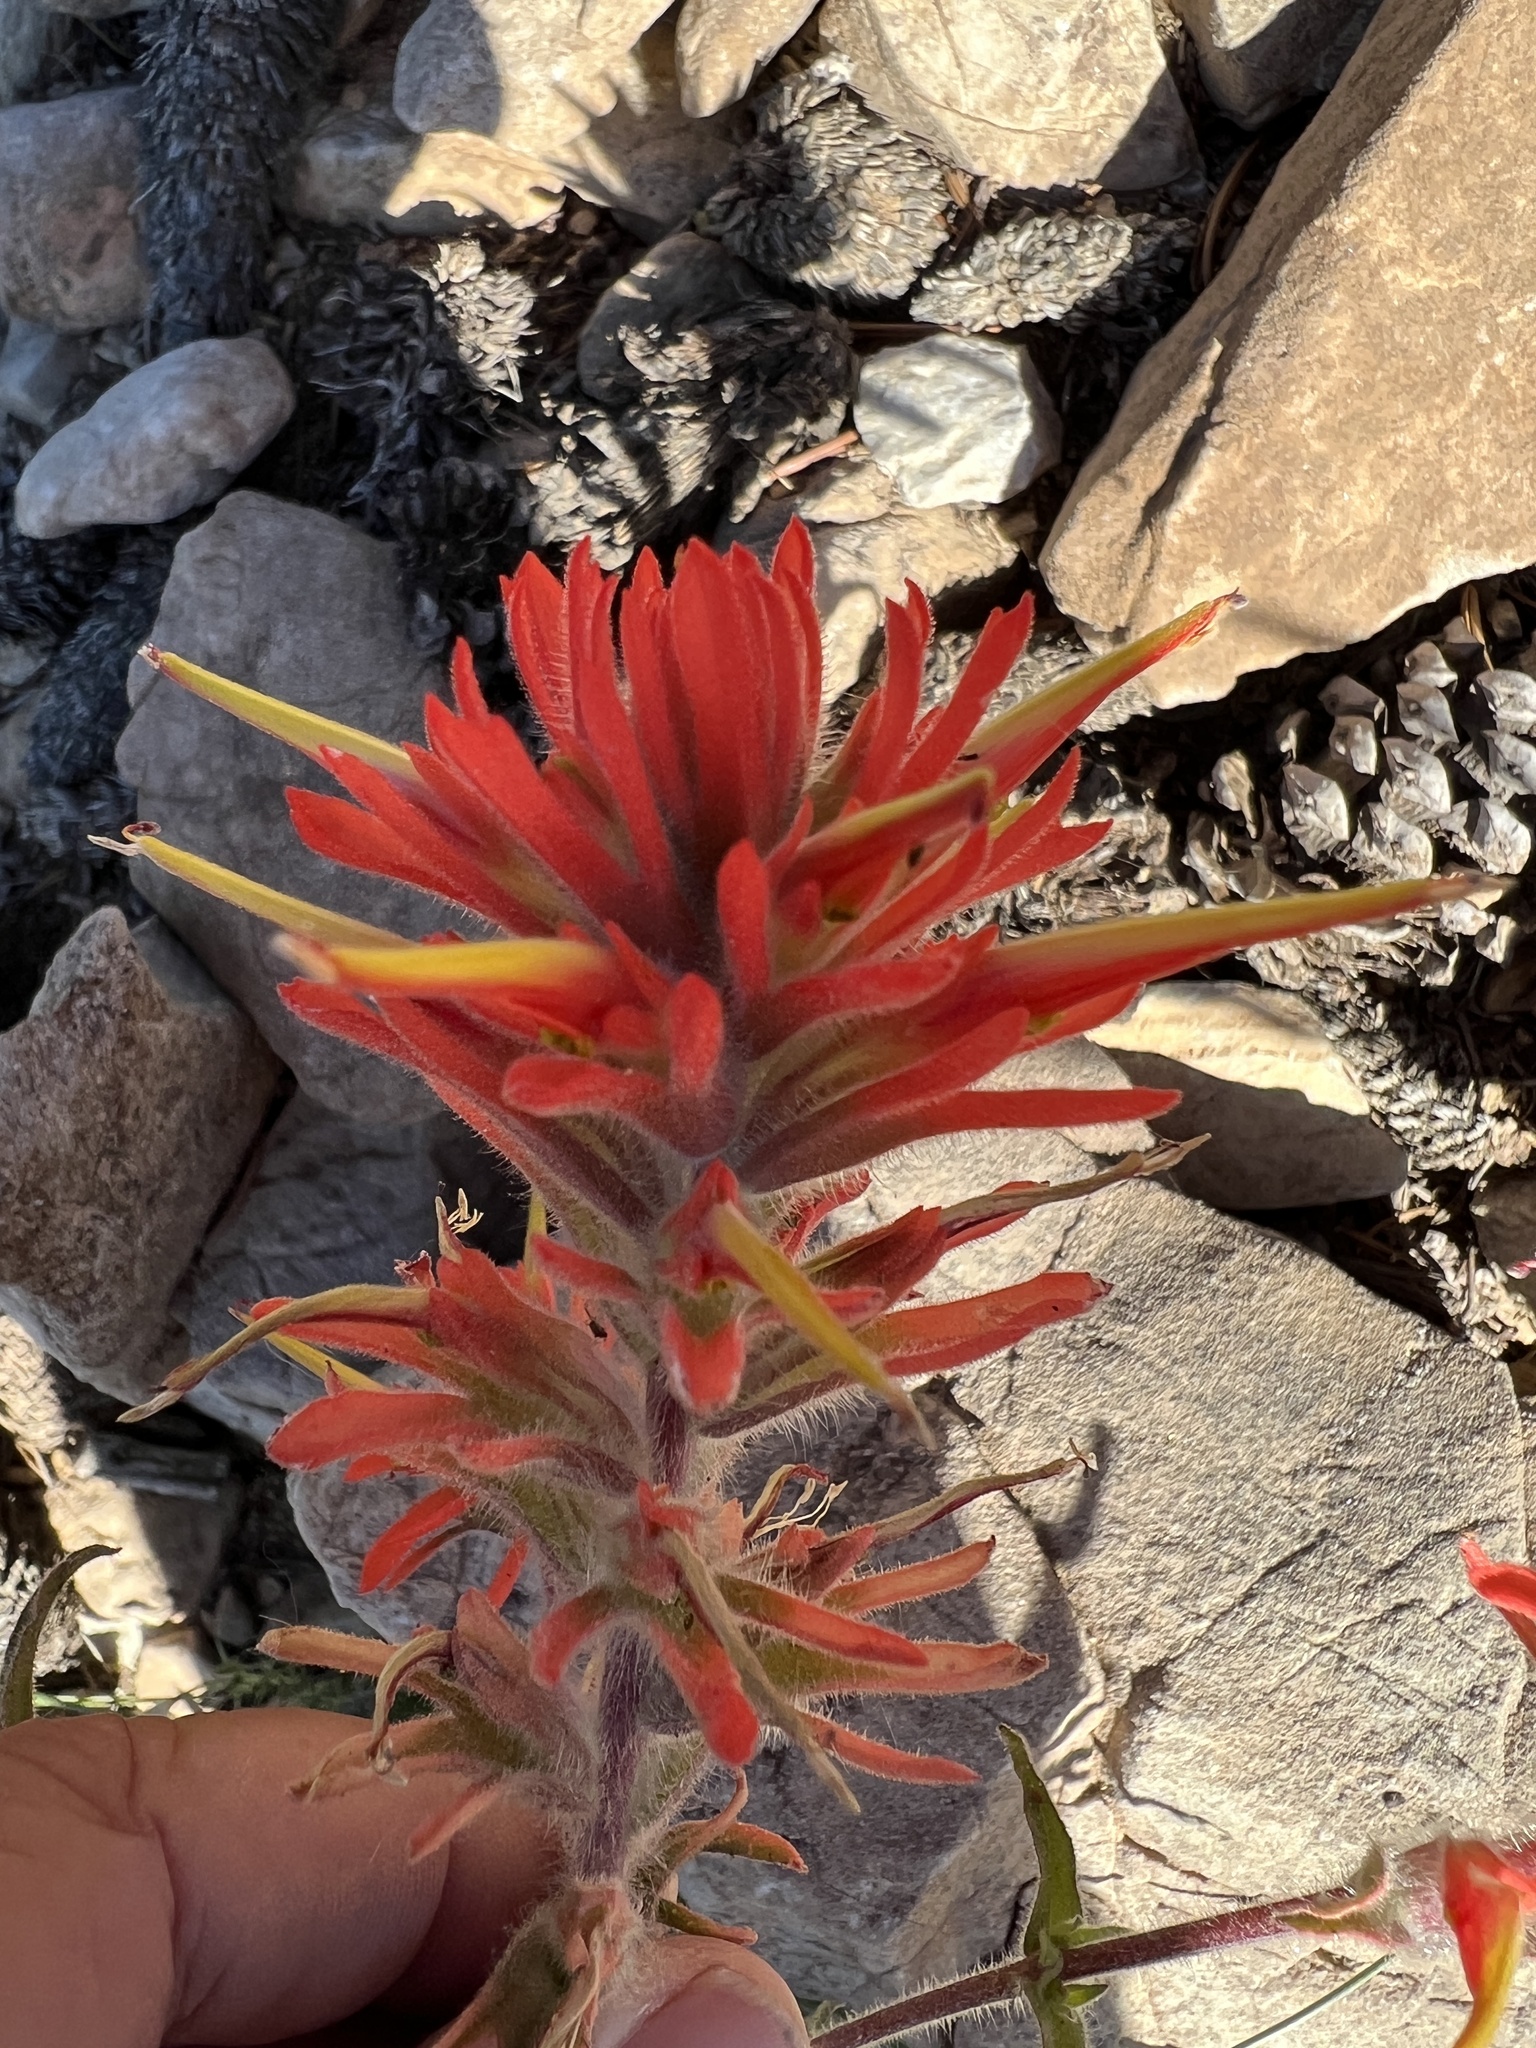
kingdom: Plantae
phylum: Tracheophyta
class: Magnoliopsida
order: Lamiales
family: Orobanchaceae
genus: Castilleja
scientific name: Castilleja chromosa
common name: Desert paintbrush
